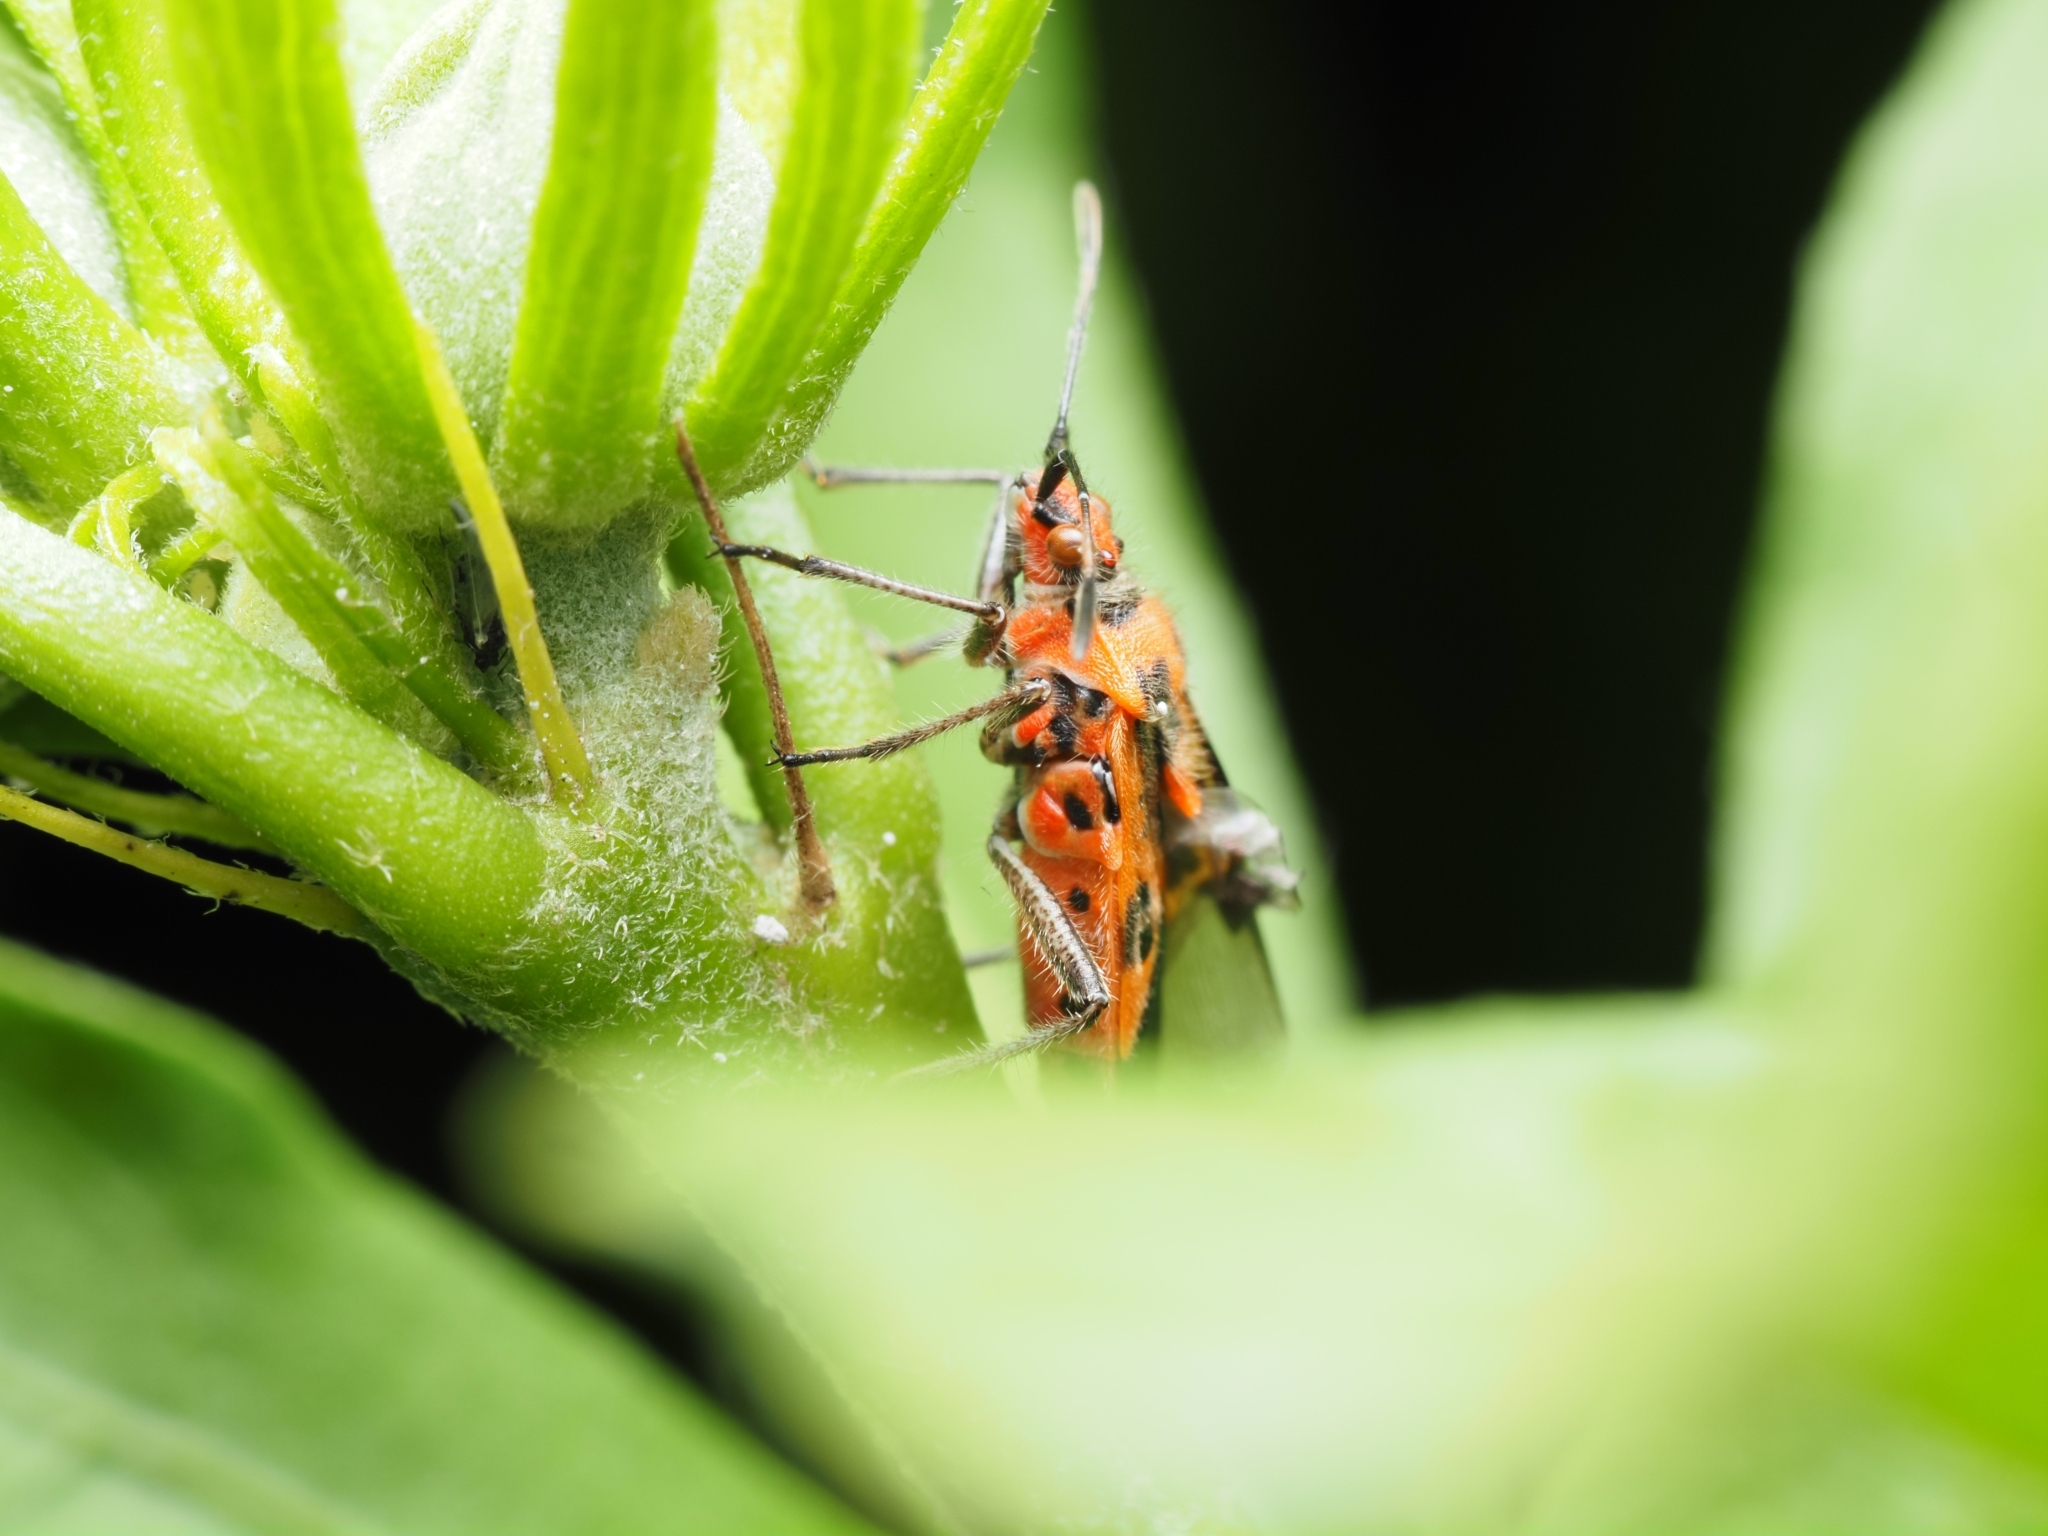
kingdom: Animalia
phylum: Arthropoda
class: Insecta
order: Hemiptera
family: Rhopalidae
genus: Corizus
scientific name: Corizus hyoscyami
